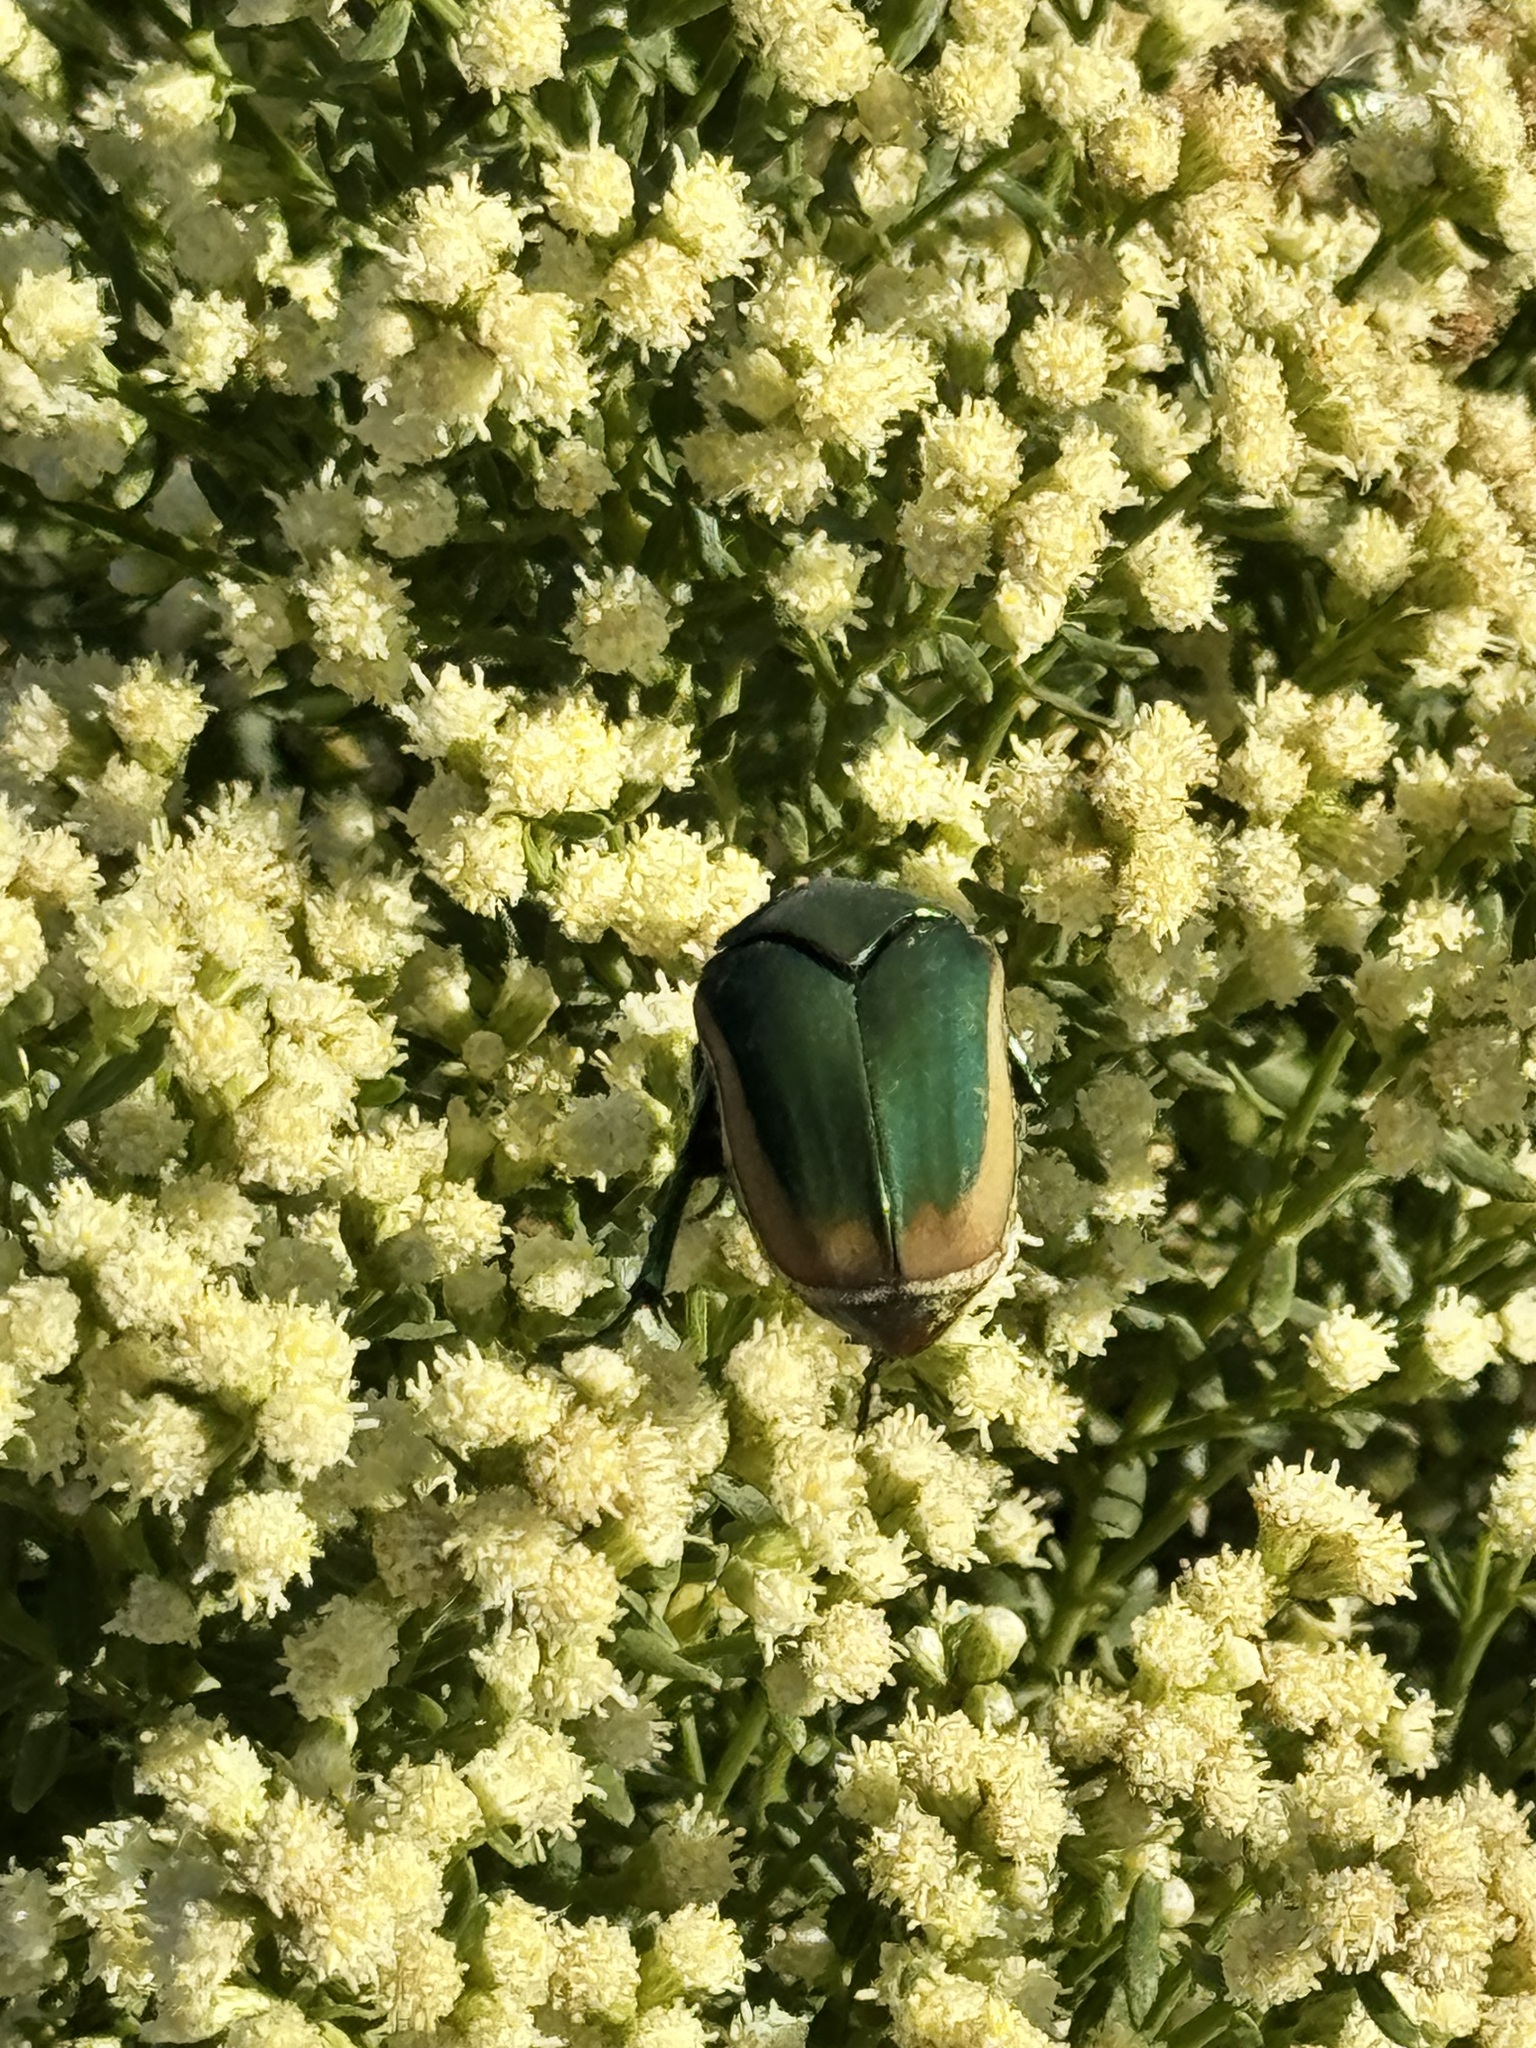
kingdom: Animalia
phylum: Arthropoda
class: Insecta
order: Coleoptera
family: Scarabaeidae
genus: Cotinis
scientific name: Cotinis mutabilis
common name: Figeater beetle
